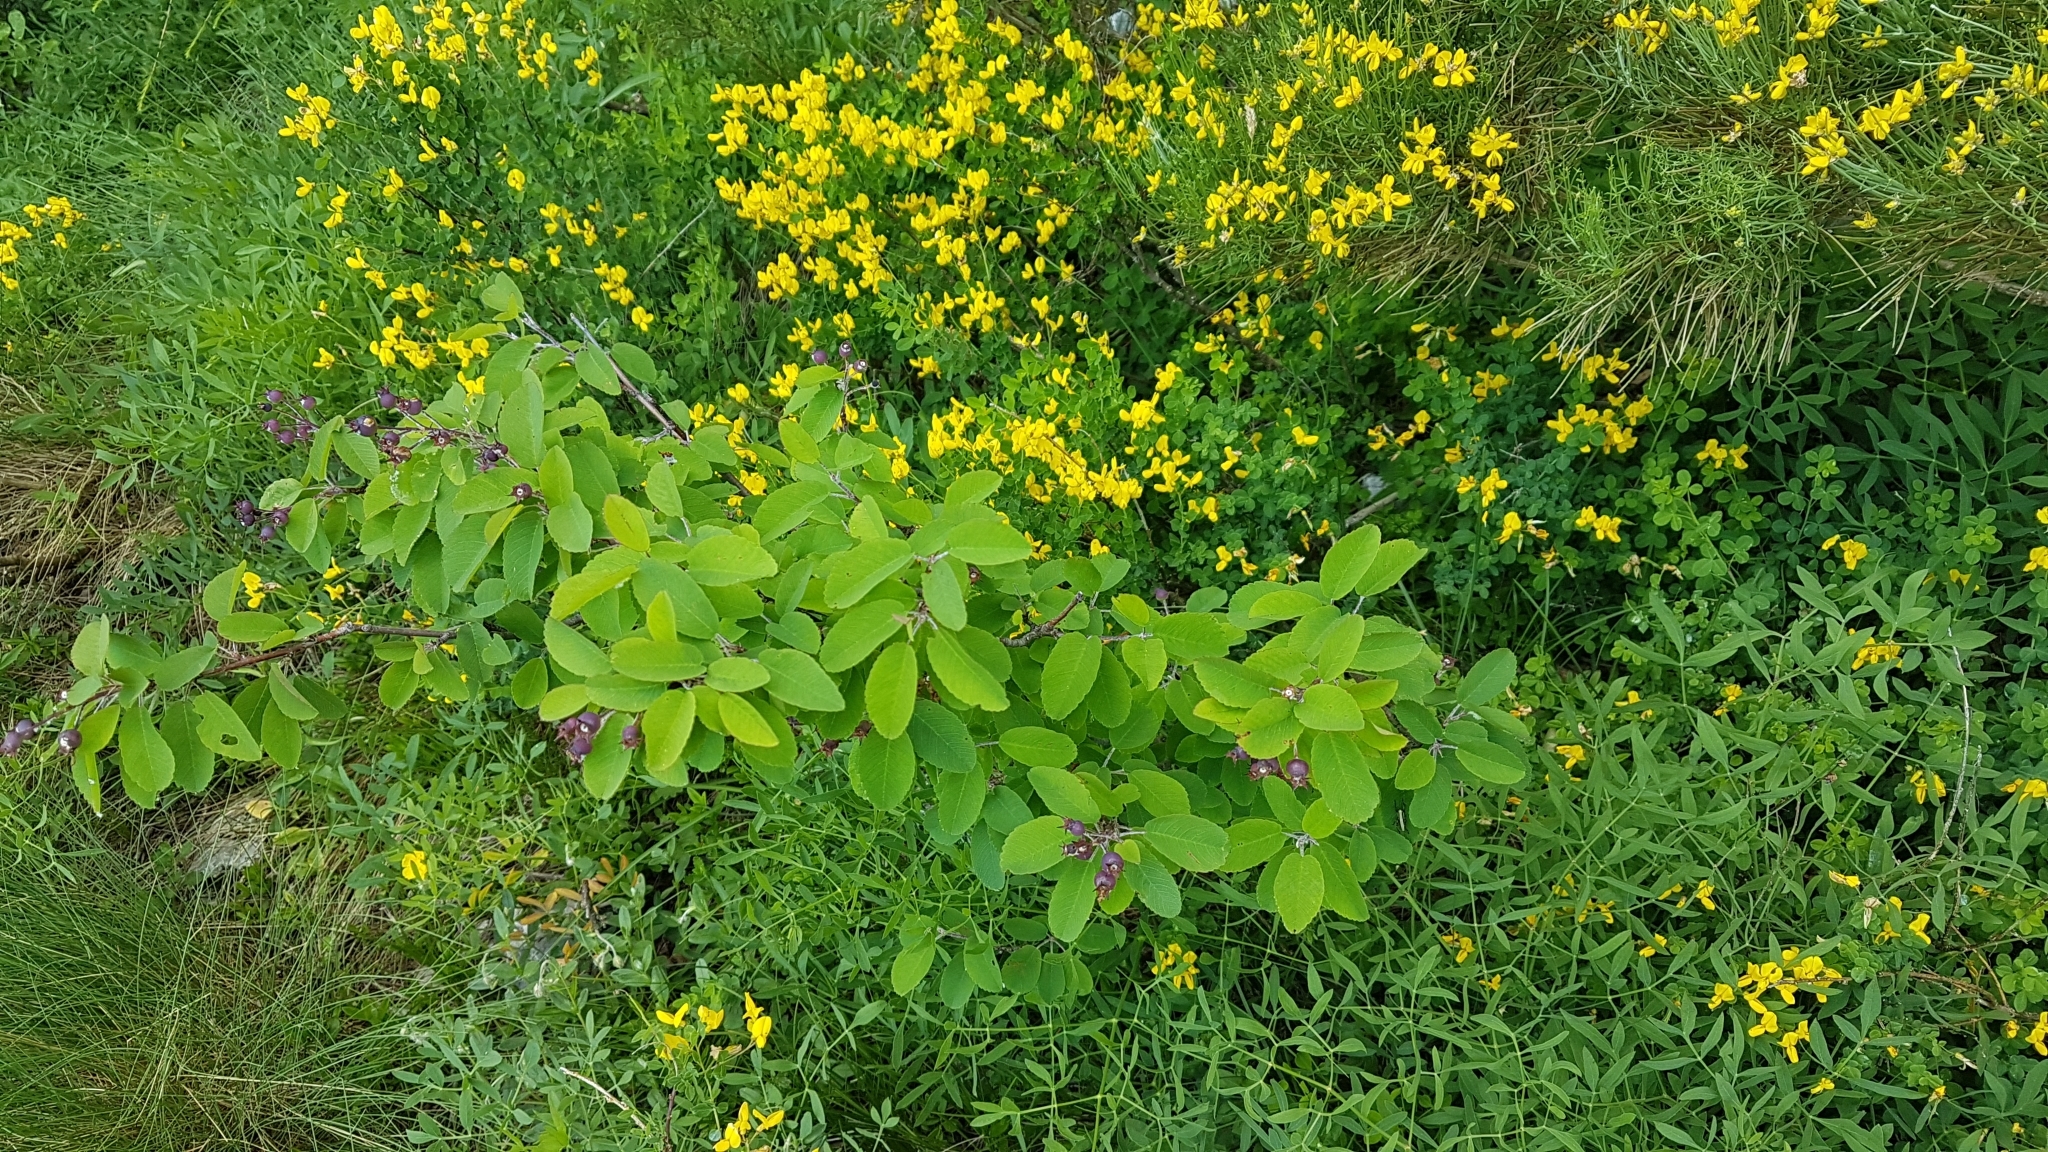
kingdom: Plantae
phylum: Tracheophyta
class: Magnoliopsida
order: Rosales
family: Rosaceae
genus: Amelanchier
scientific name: Amelanchier ovalis
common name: Serviceberry
